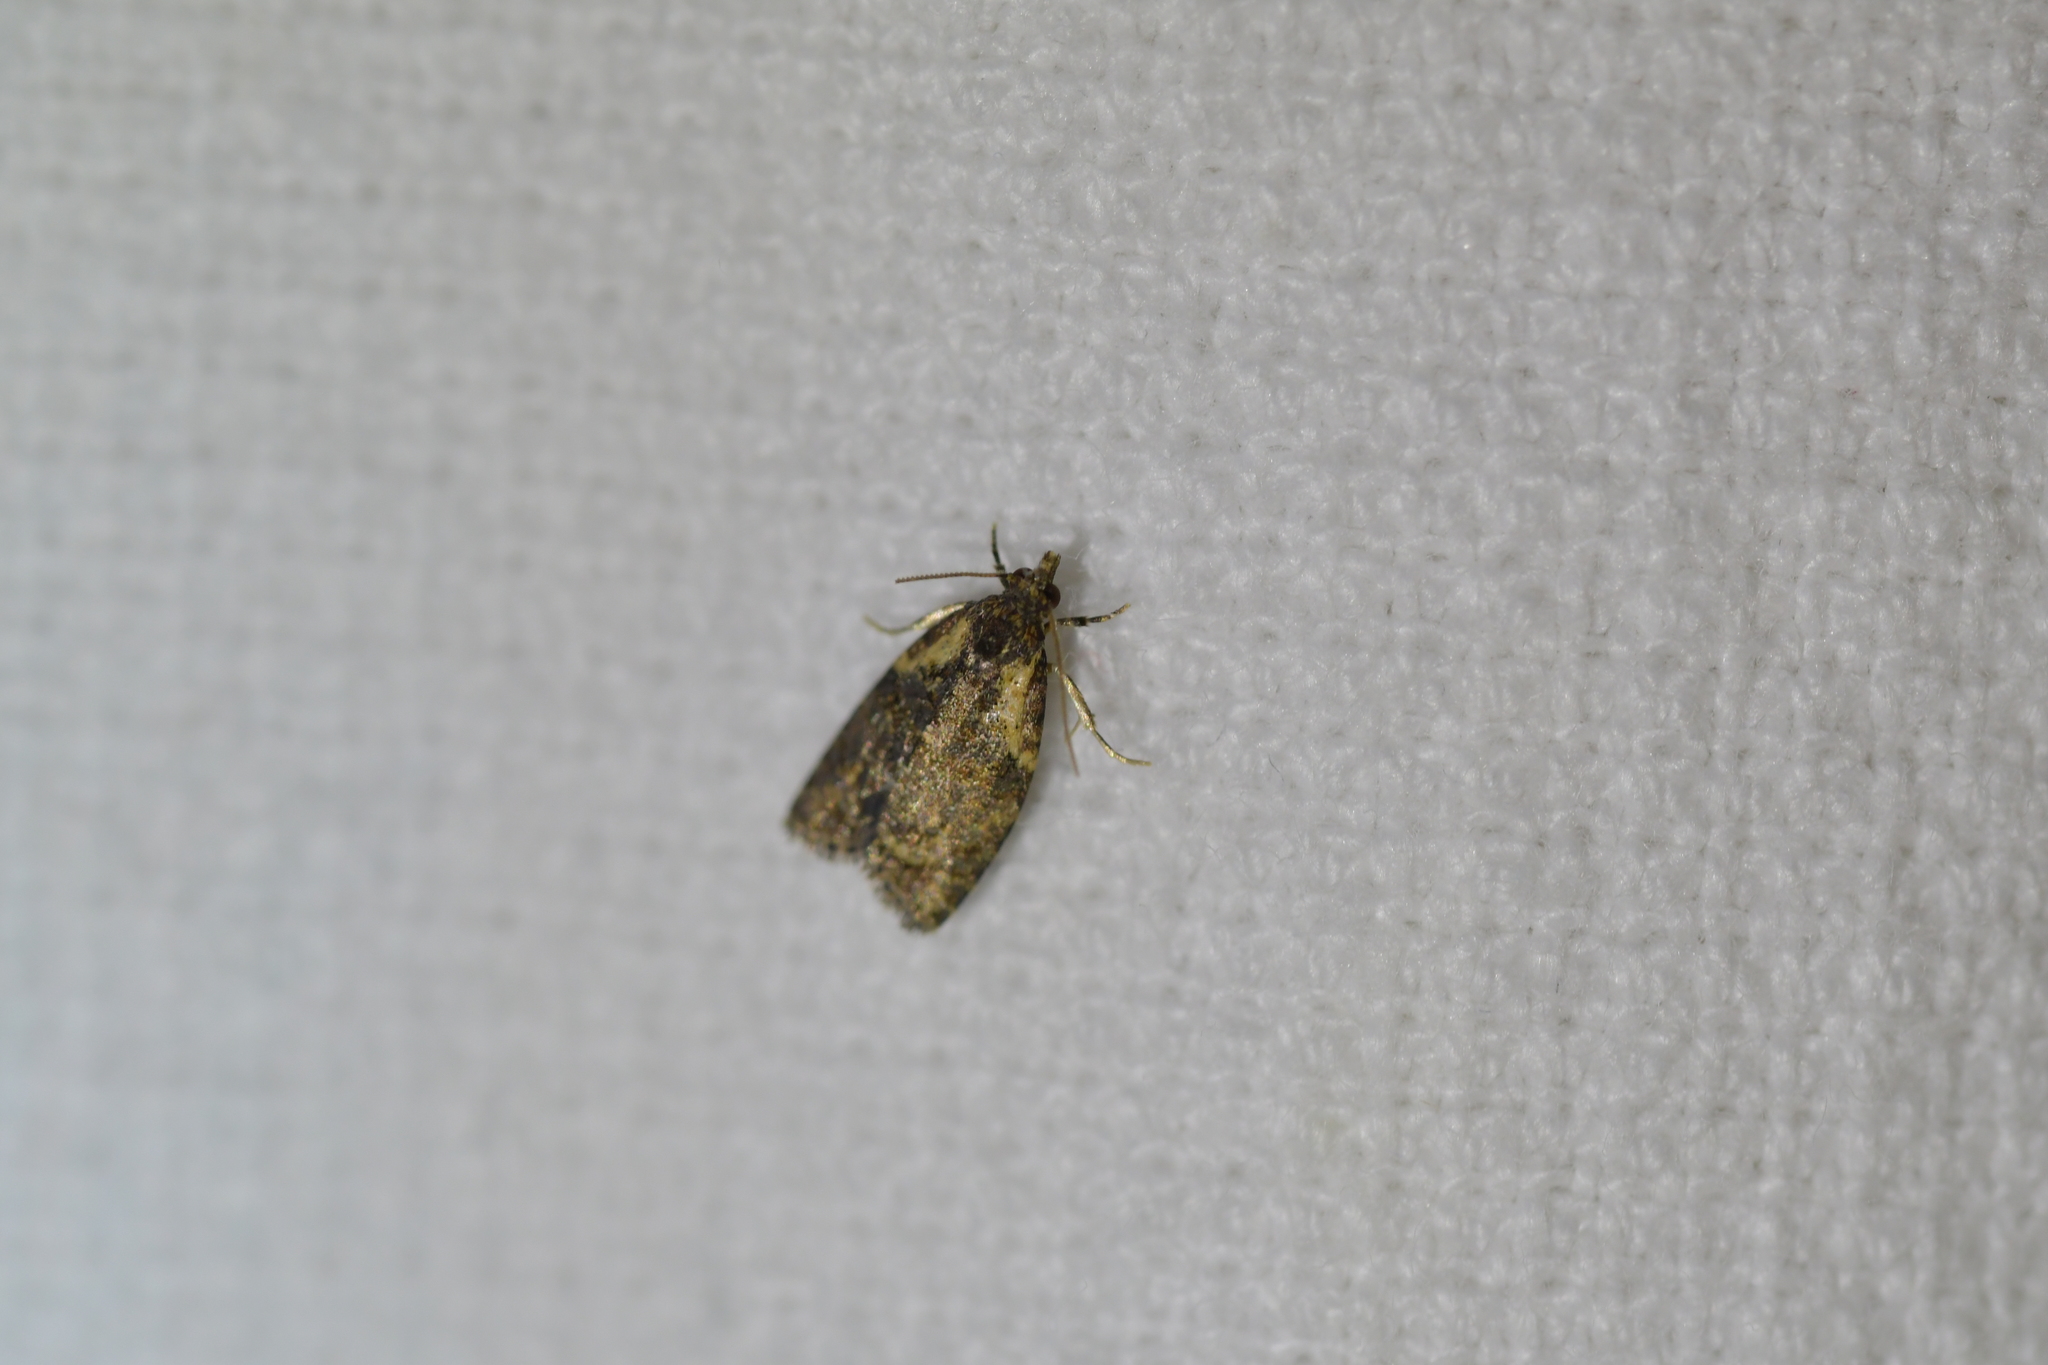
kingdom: Animalia
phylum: Arthropoda
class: Insecta
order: Lepidoptera
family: Tortricidae
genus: Capua
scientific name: Capua intractana
